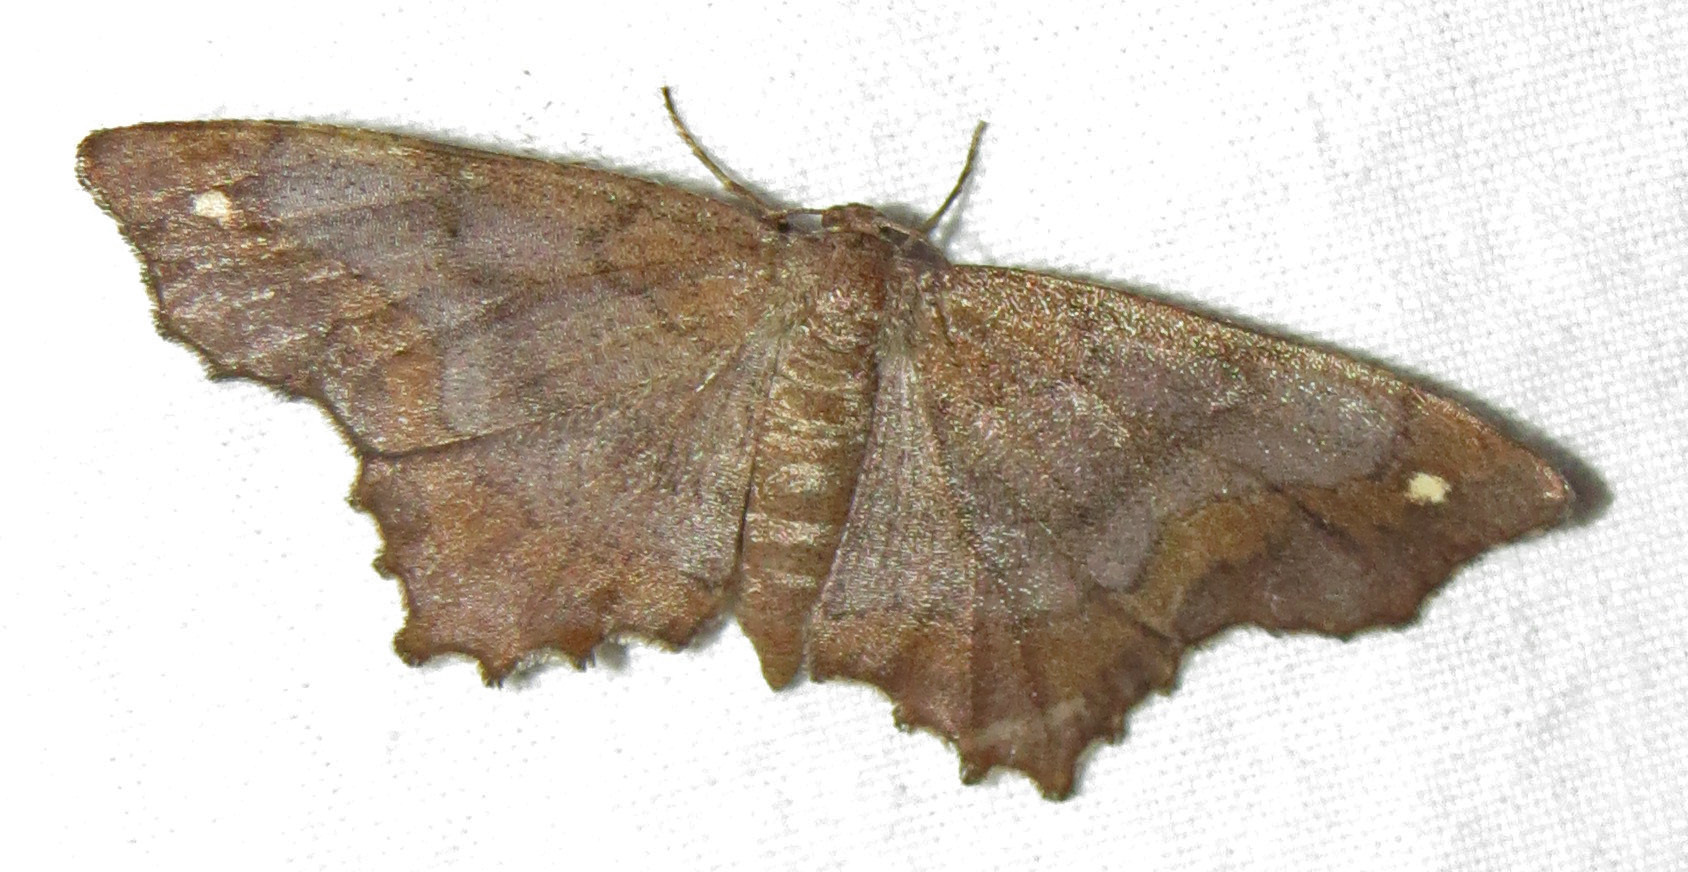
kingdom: Animalia
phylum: Arthropoda
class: Insecta
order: Lepidoptera
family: Geometridae
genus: Hypagyrtis
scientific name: Hypagyrtis unipunctata
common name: One-spotted variant
